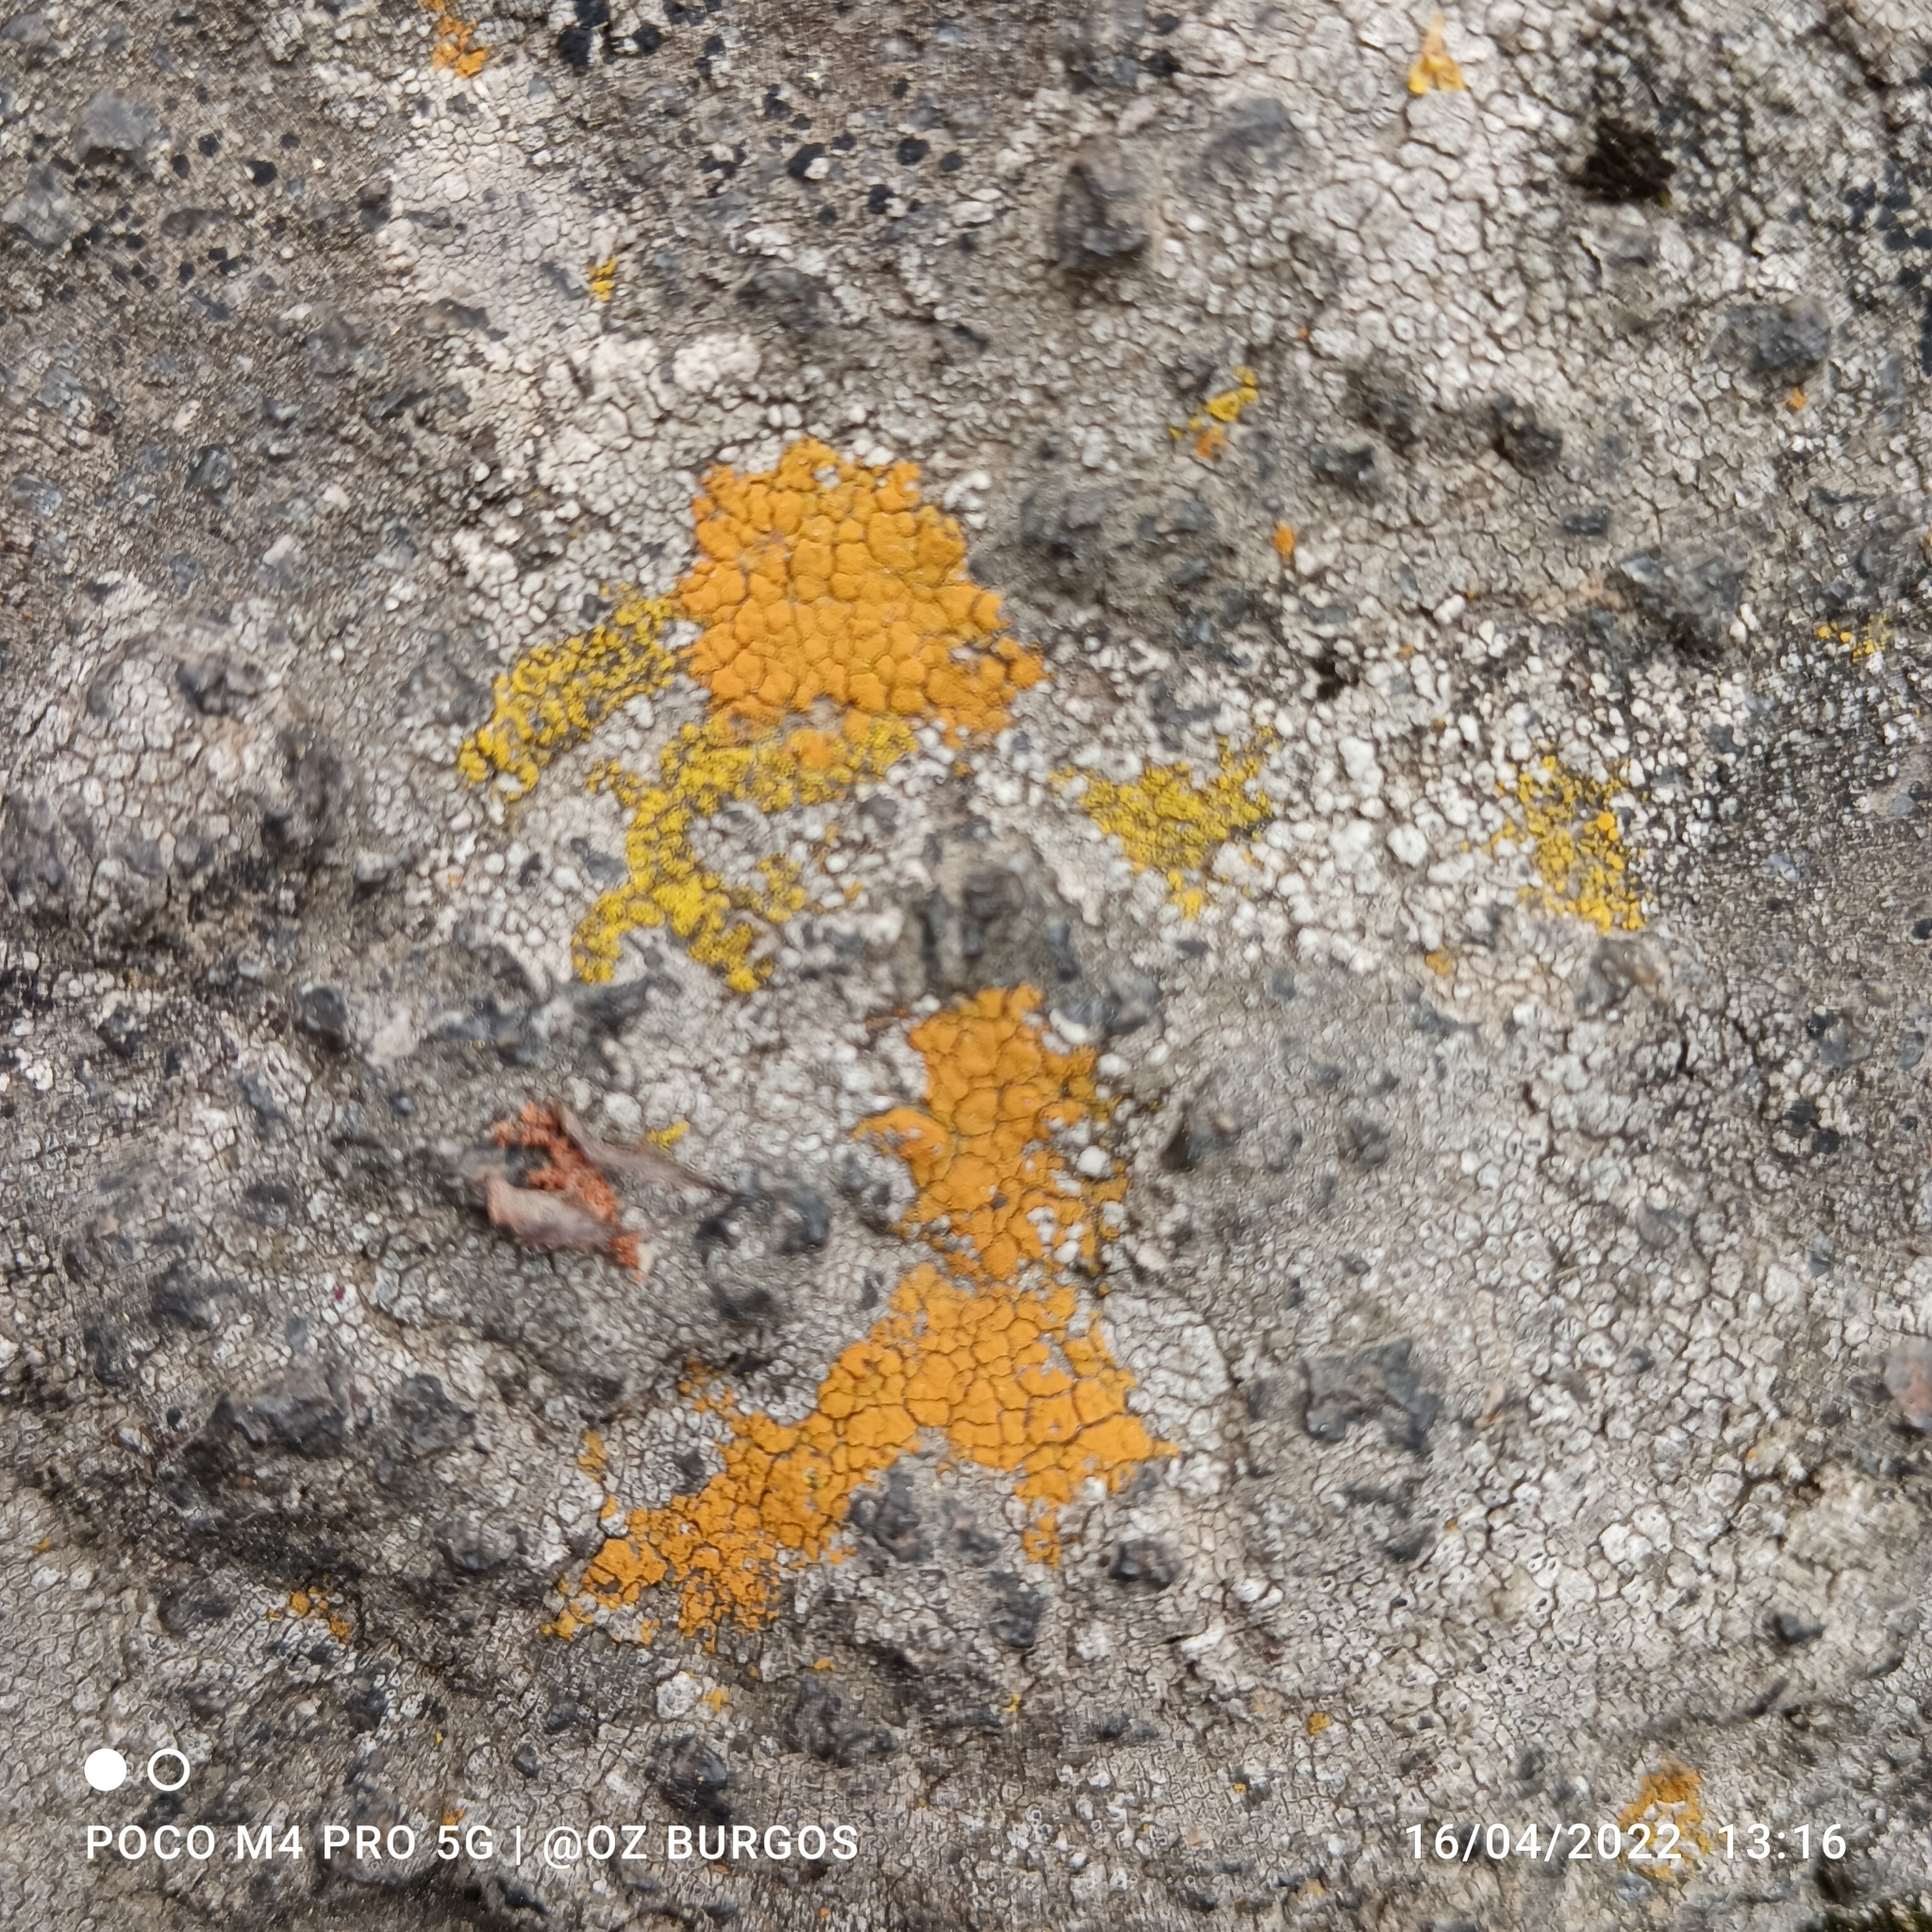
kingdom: Fungi
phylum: Ascomycota
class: Lecanoromycetes
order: Teloschistales
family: Teloschistaceae
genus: Squamulea
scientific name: Squamulea subsoluta
